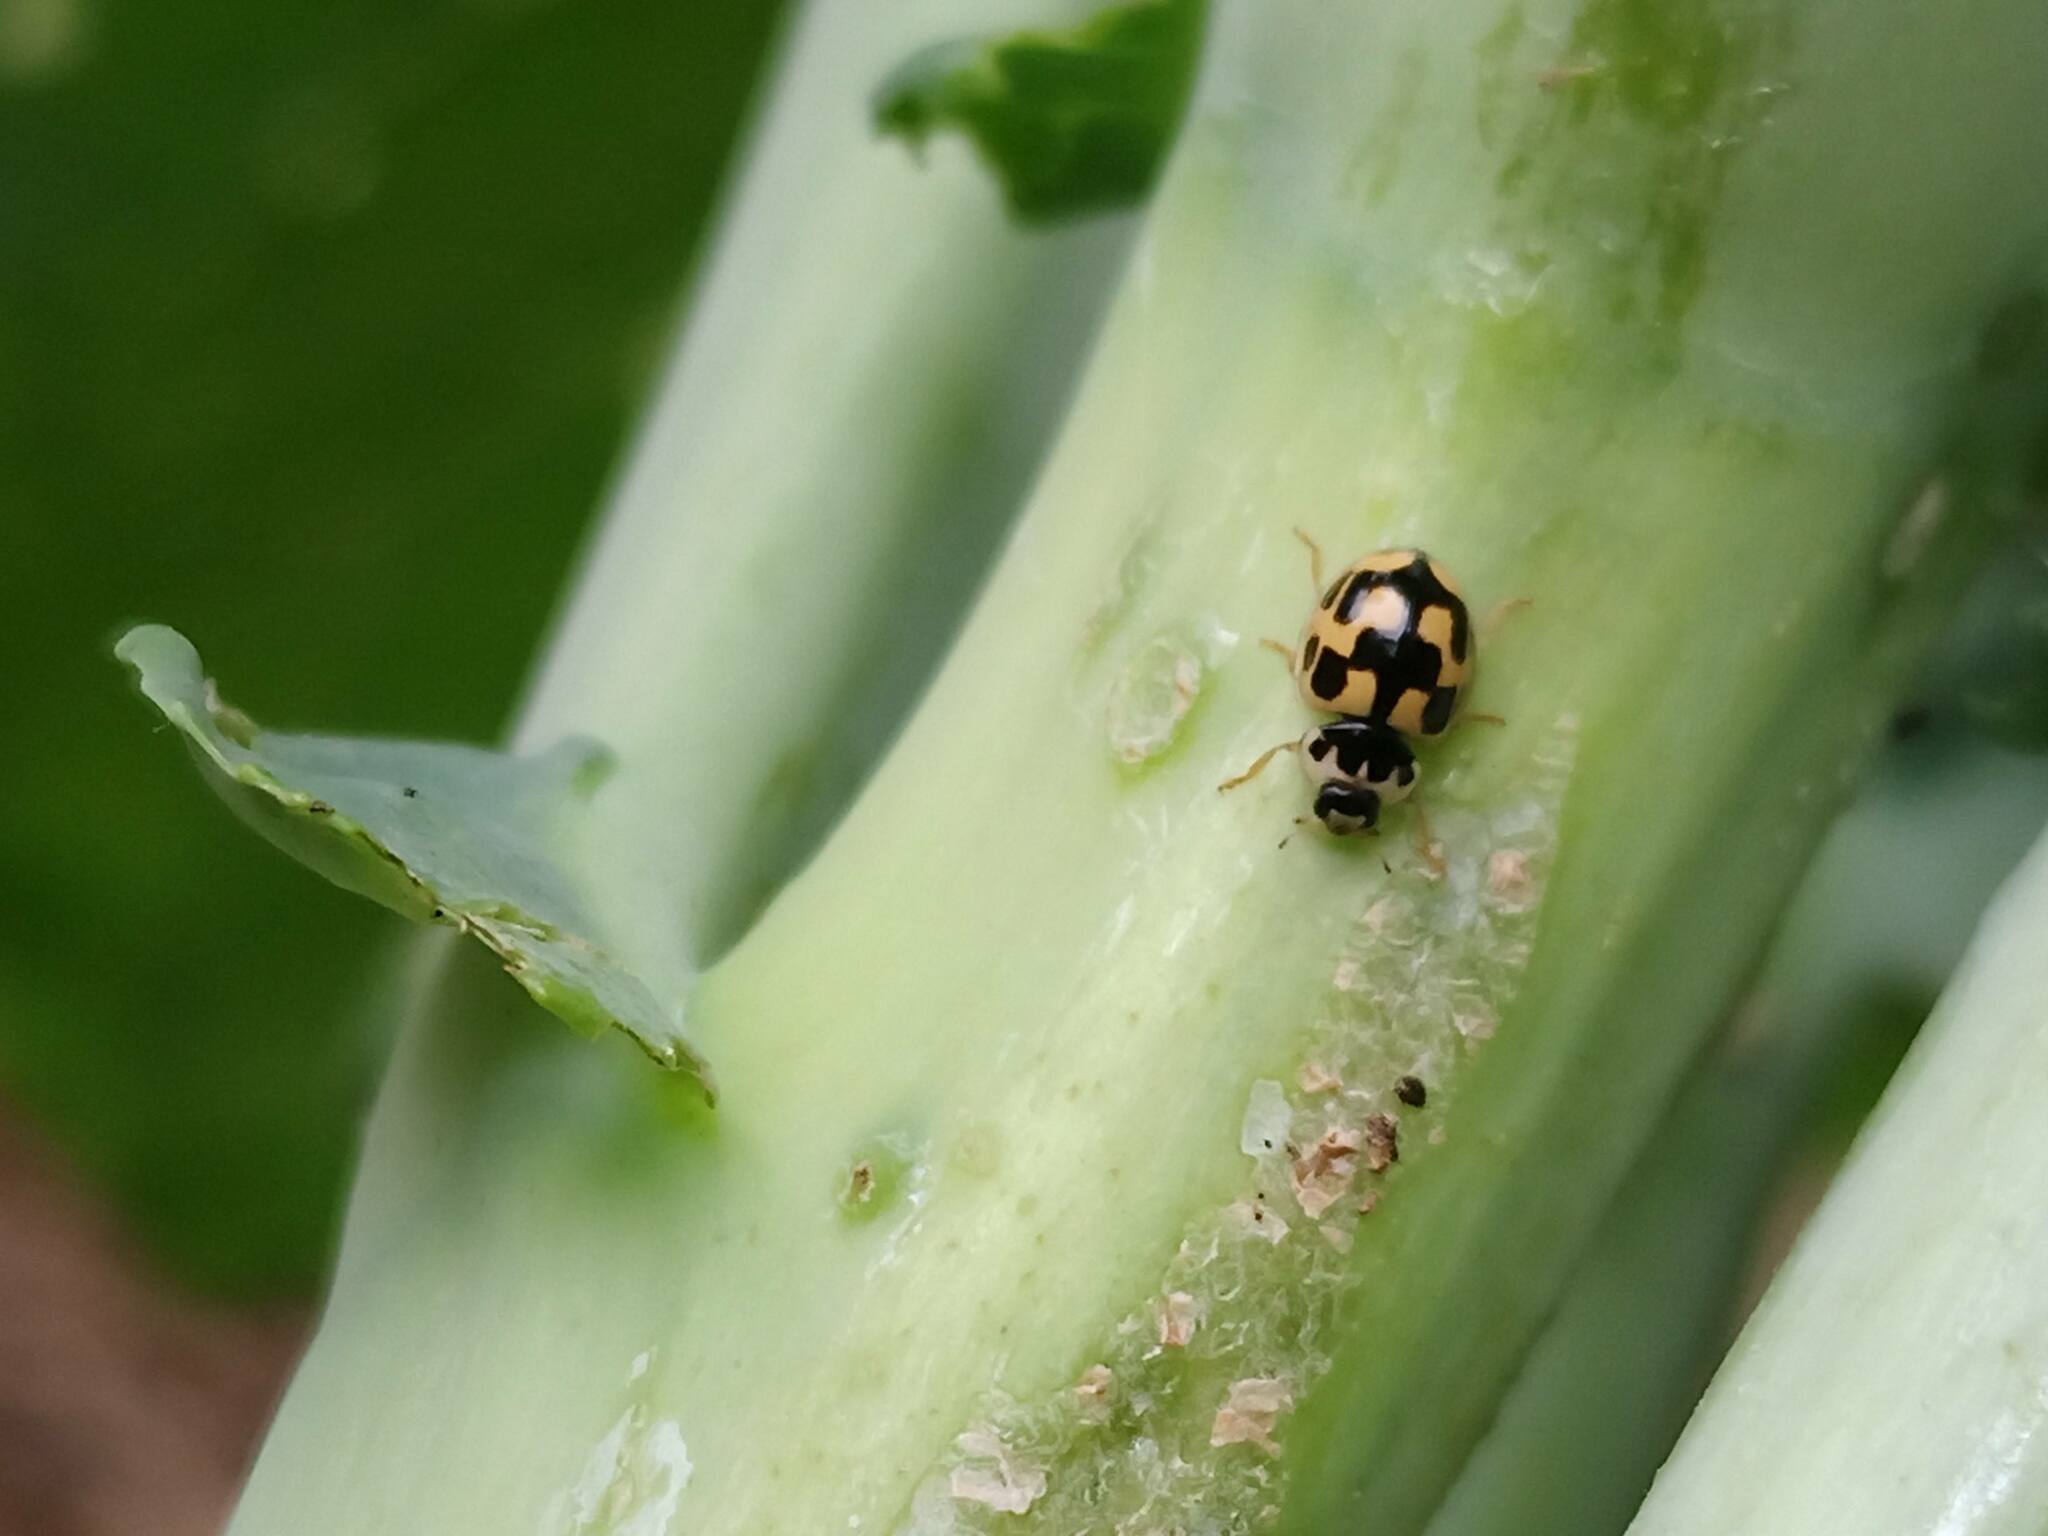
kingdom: Animalia
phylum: Arthropoda
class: Insecta
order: Coleoptera
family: Coccinellidae
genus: Propylaea
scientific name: Propylaea quatuordecimpunctata
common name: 14-spotted ladybird beetle
